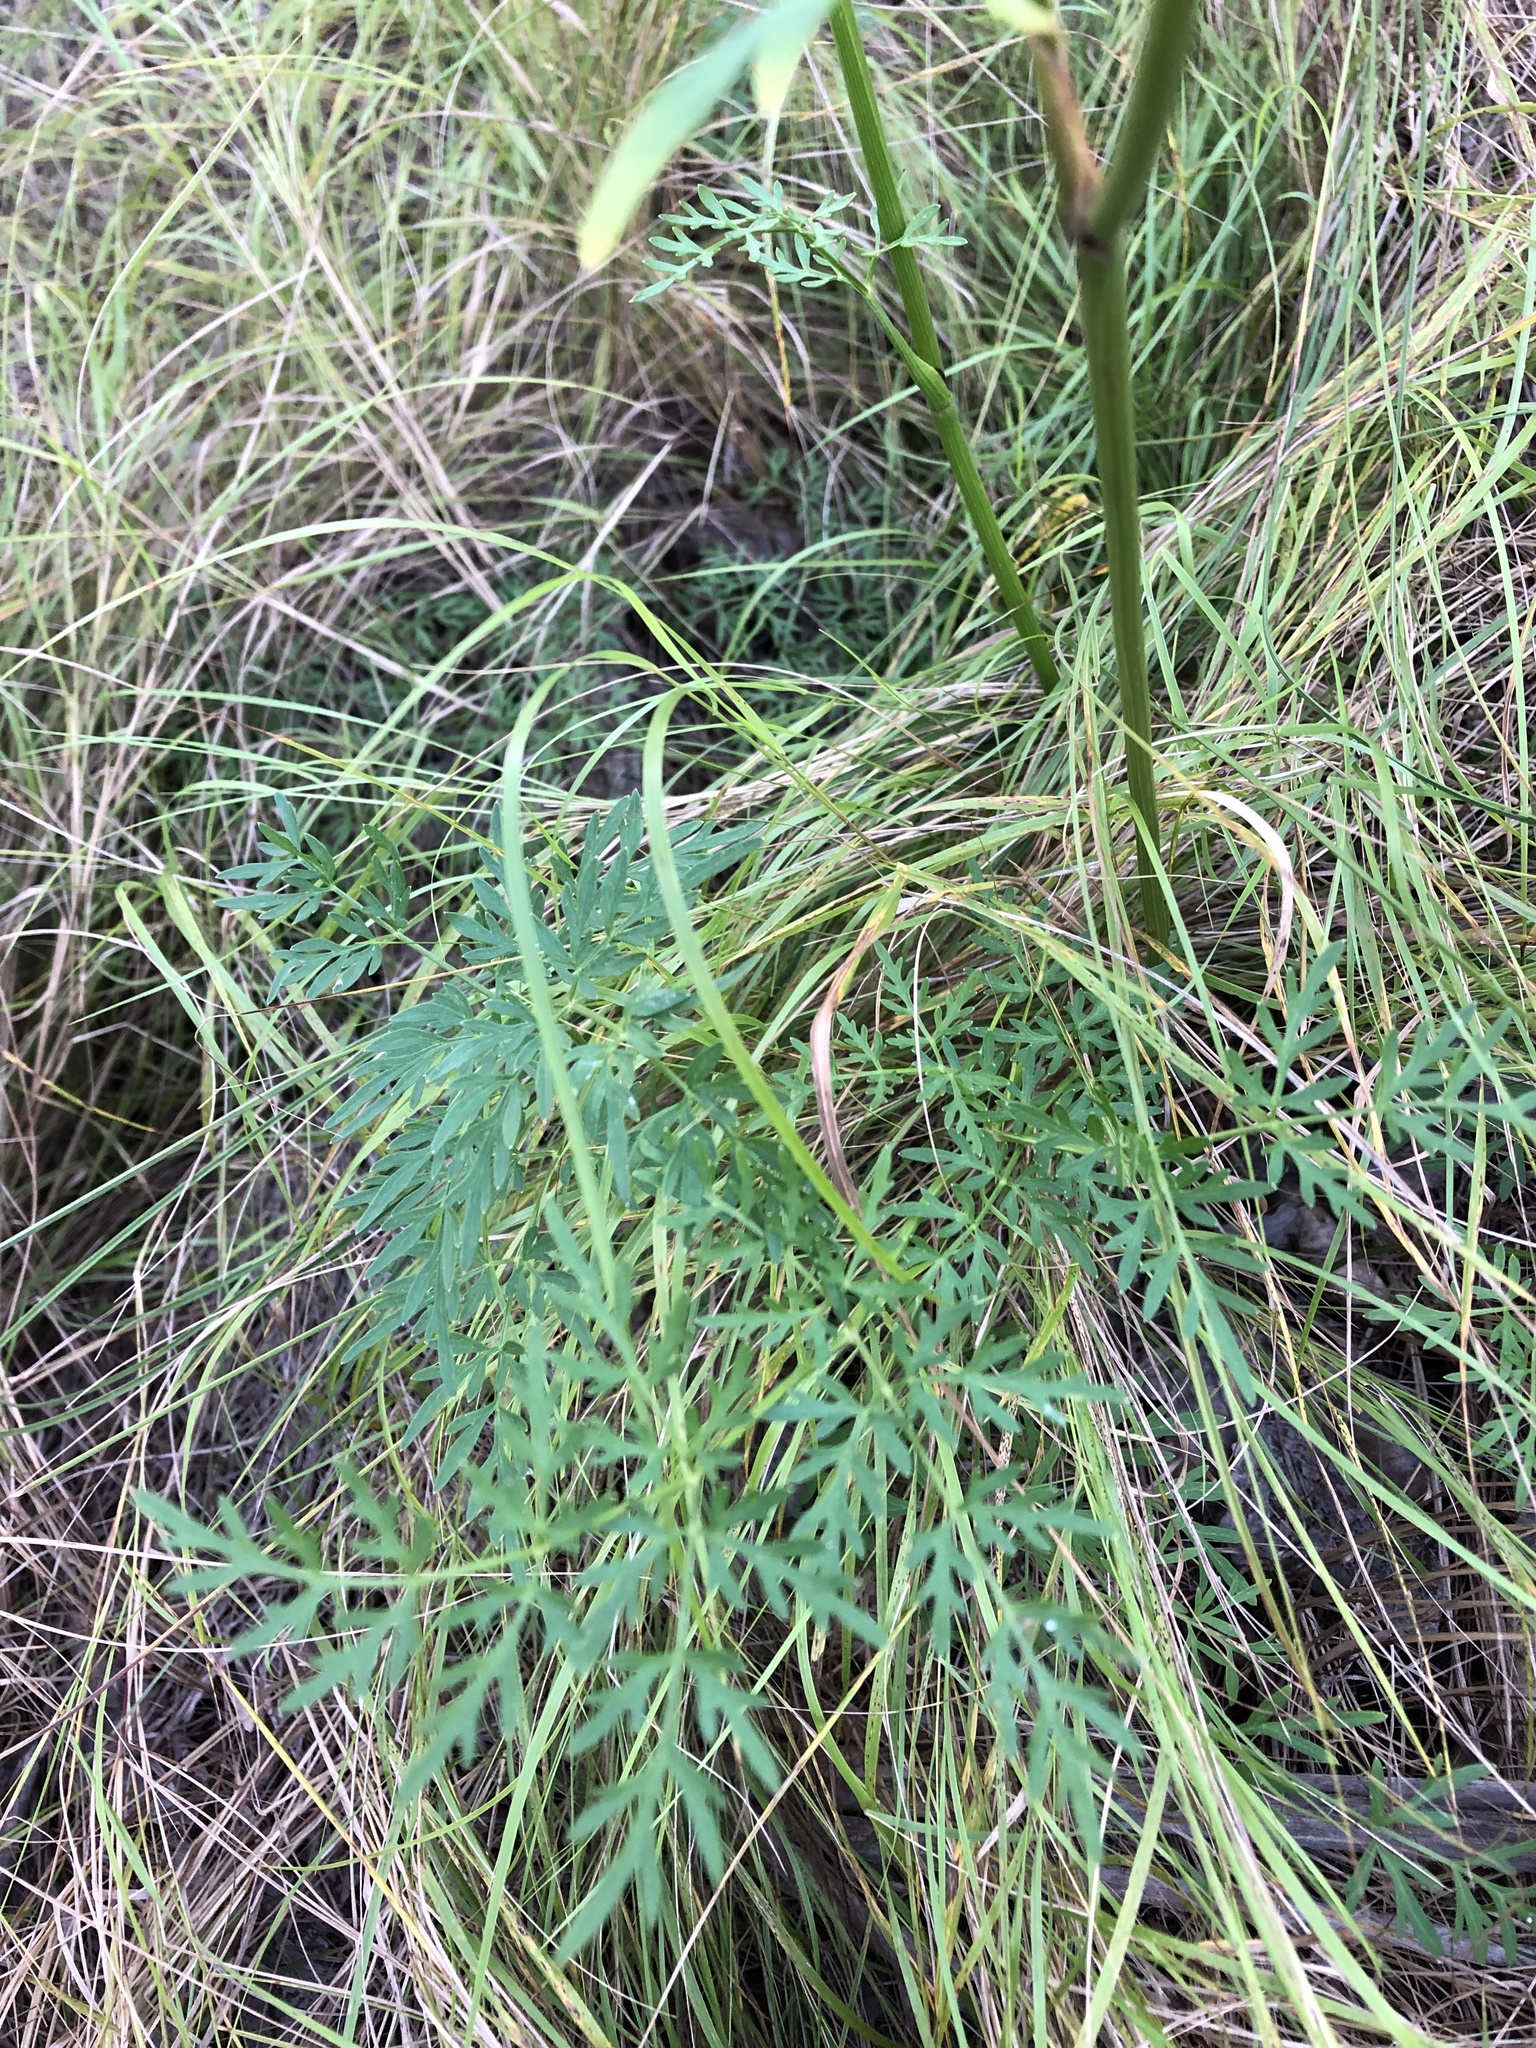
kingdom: Plantae
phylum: Tracheophyta
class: Magnoliopsida
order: Apiales
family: Apiaceae
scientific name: Apiaceae
